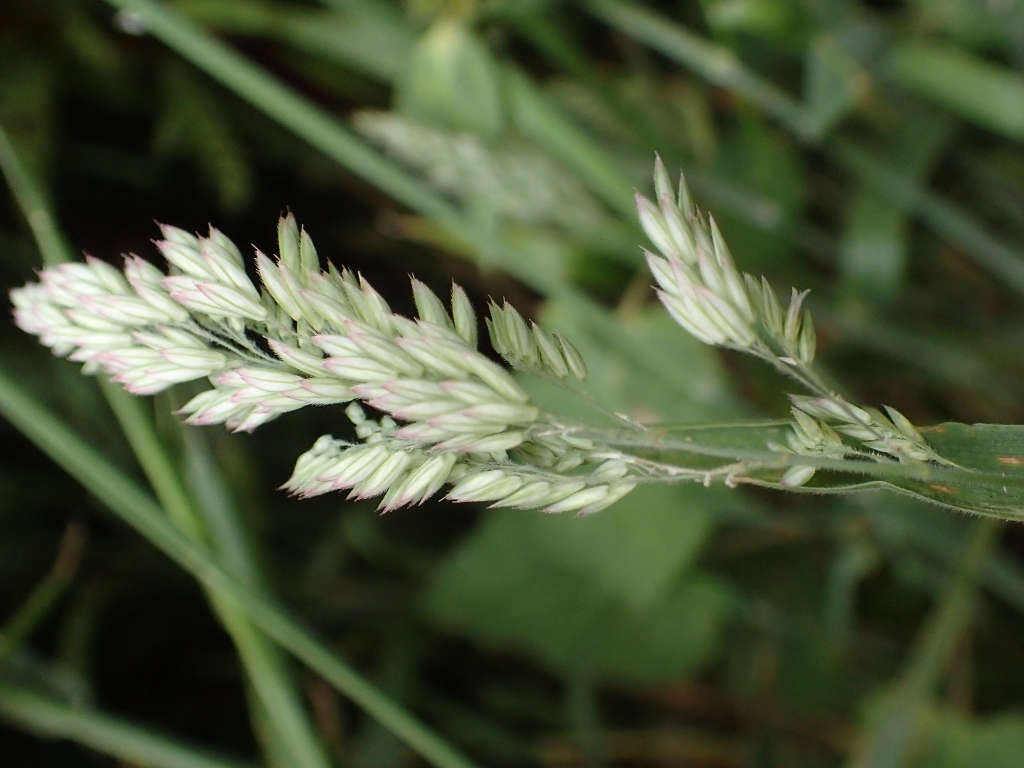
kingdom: Plantae
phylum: Tracheophyta
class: Liliopsida
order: Poales
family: Poaceae
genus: Holcus
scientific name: Holcus lanatus
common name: Yorkshire-fog
